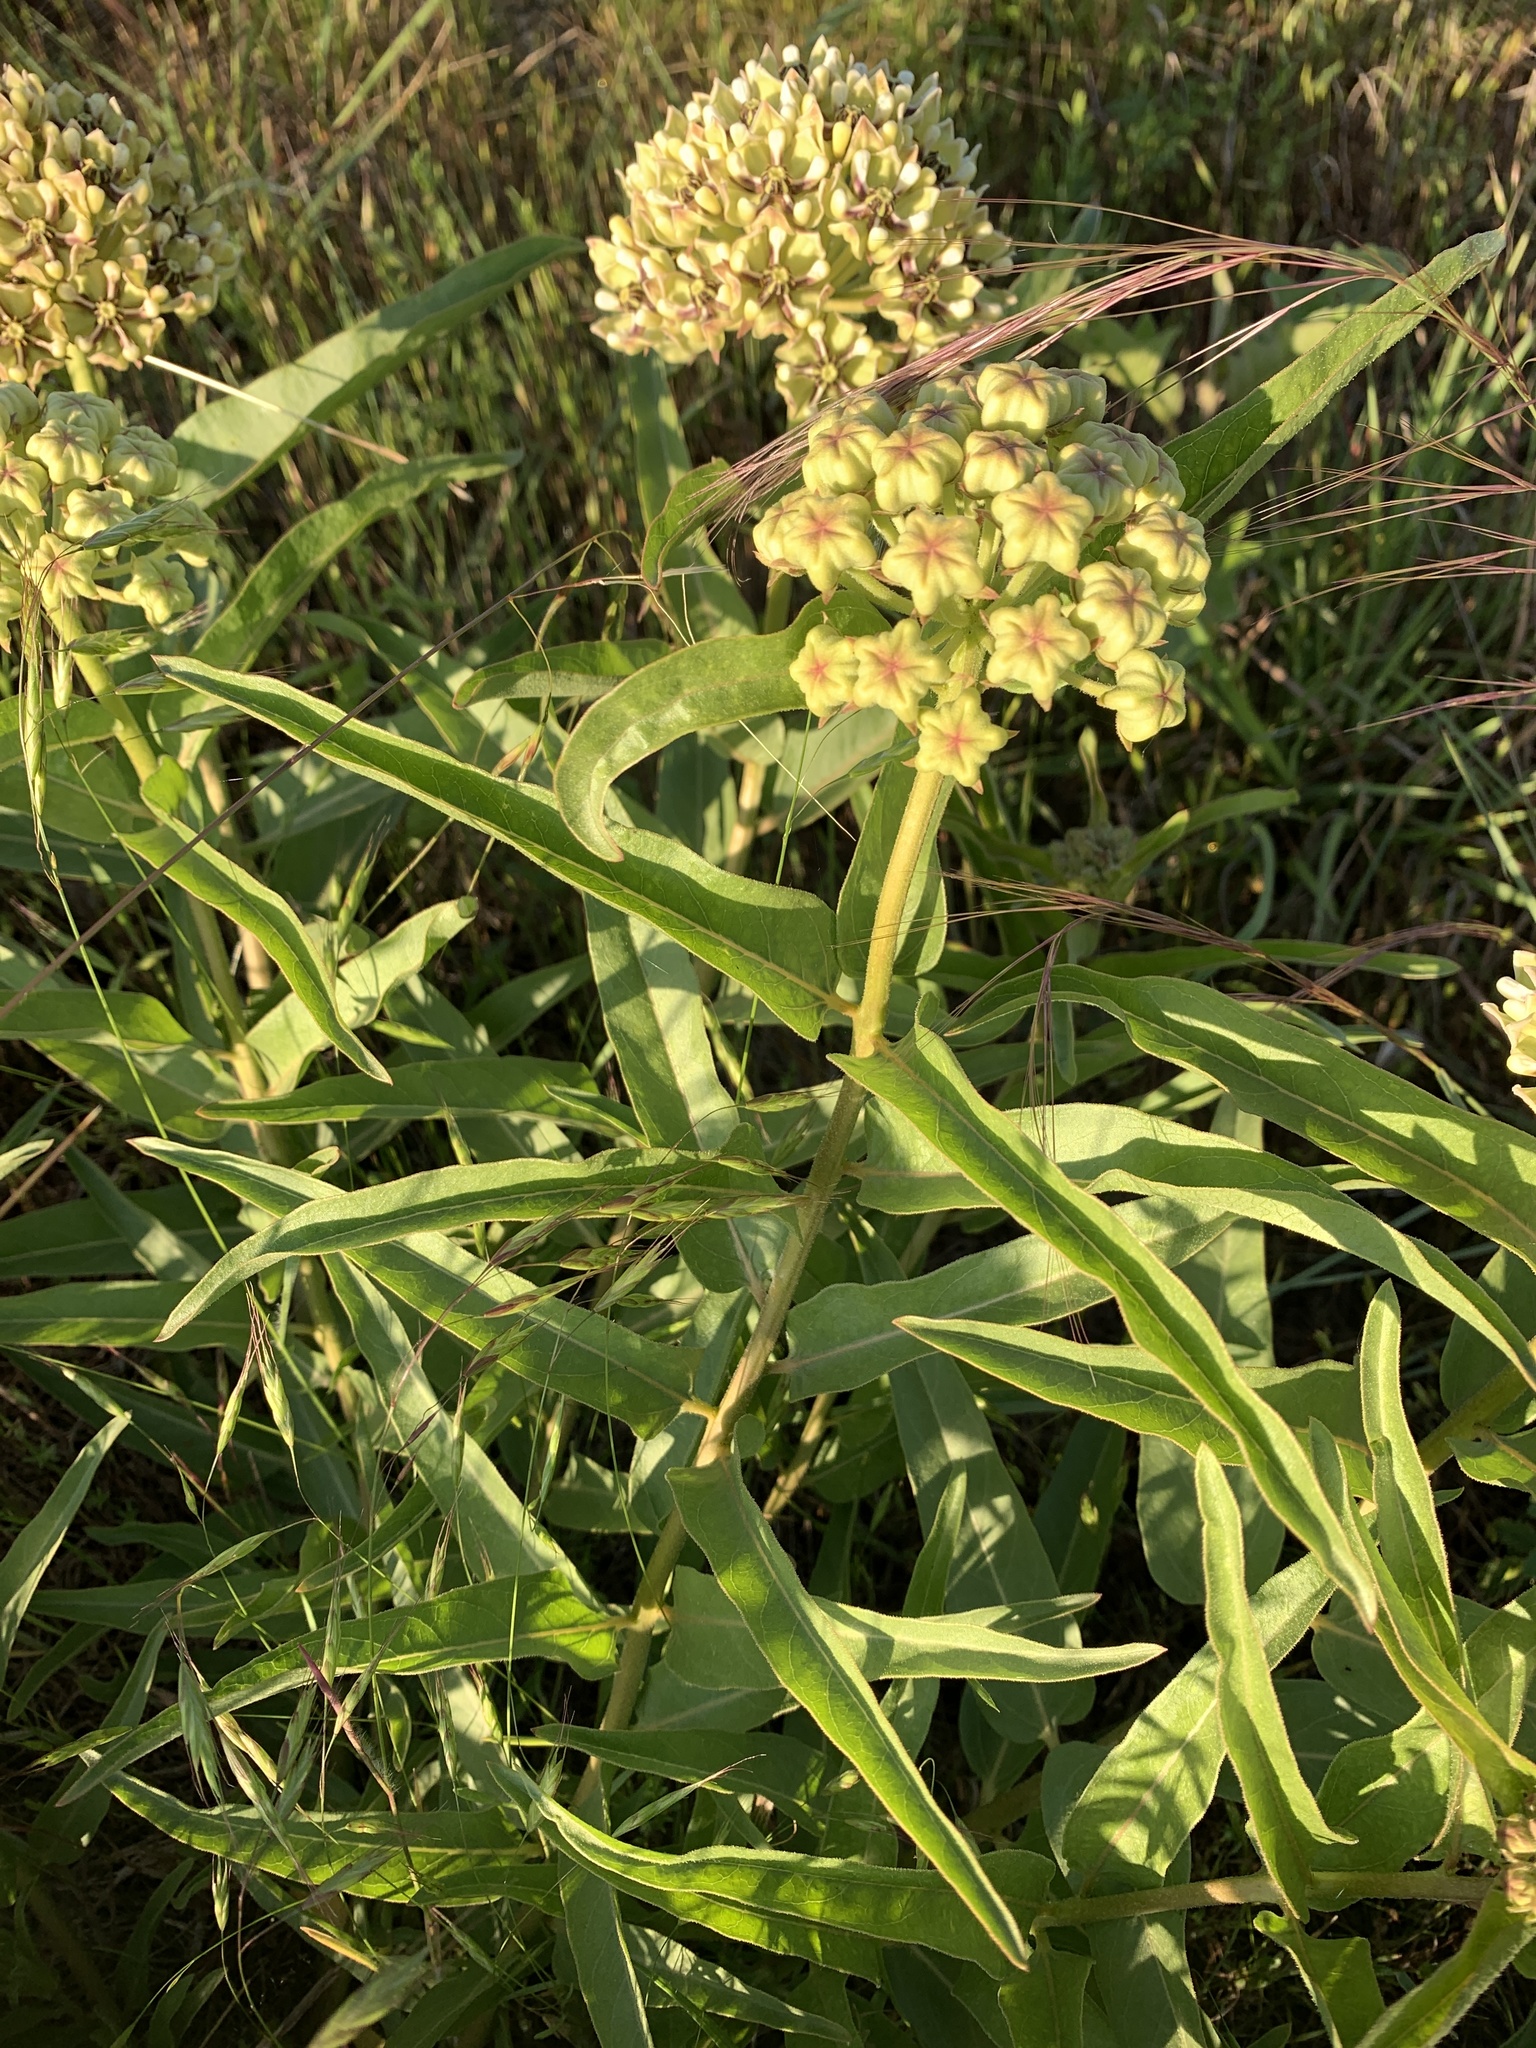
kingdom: Plantae
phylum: Tracheophyta
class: Magnoliopsida
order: Gentianales
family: Apocynaceae
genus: Asclepias
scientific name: Asclepias asperula
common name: Antelope horns
